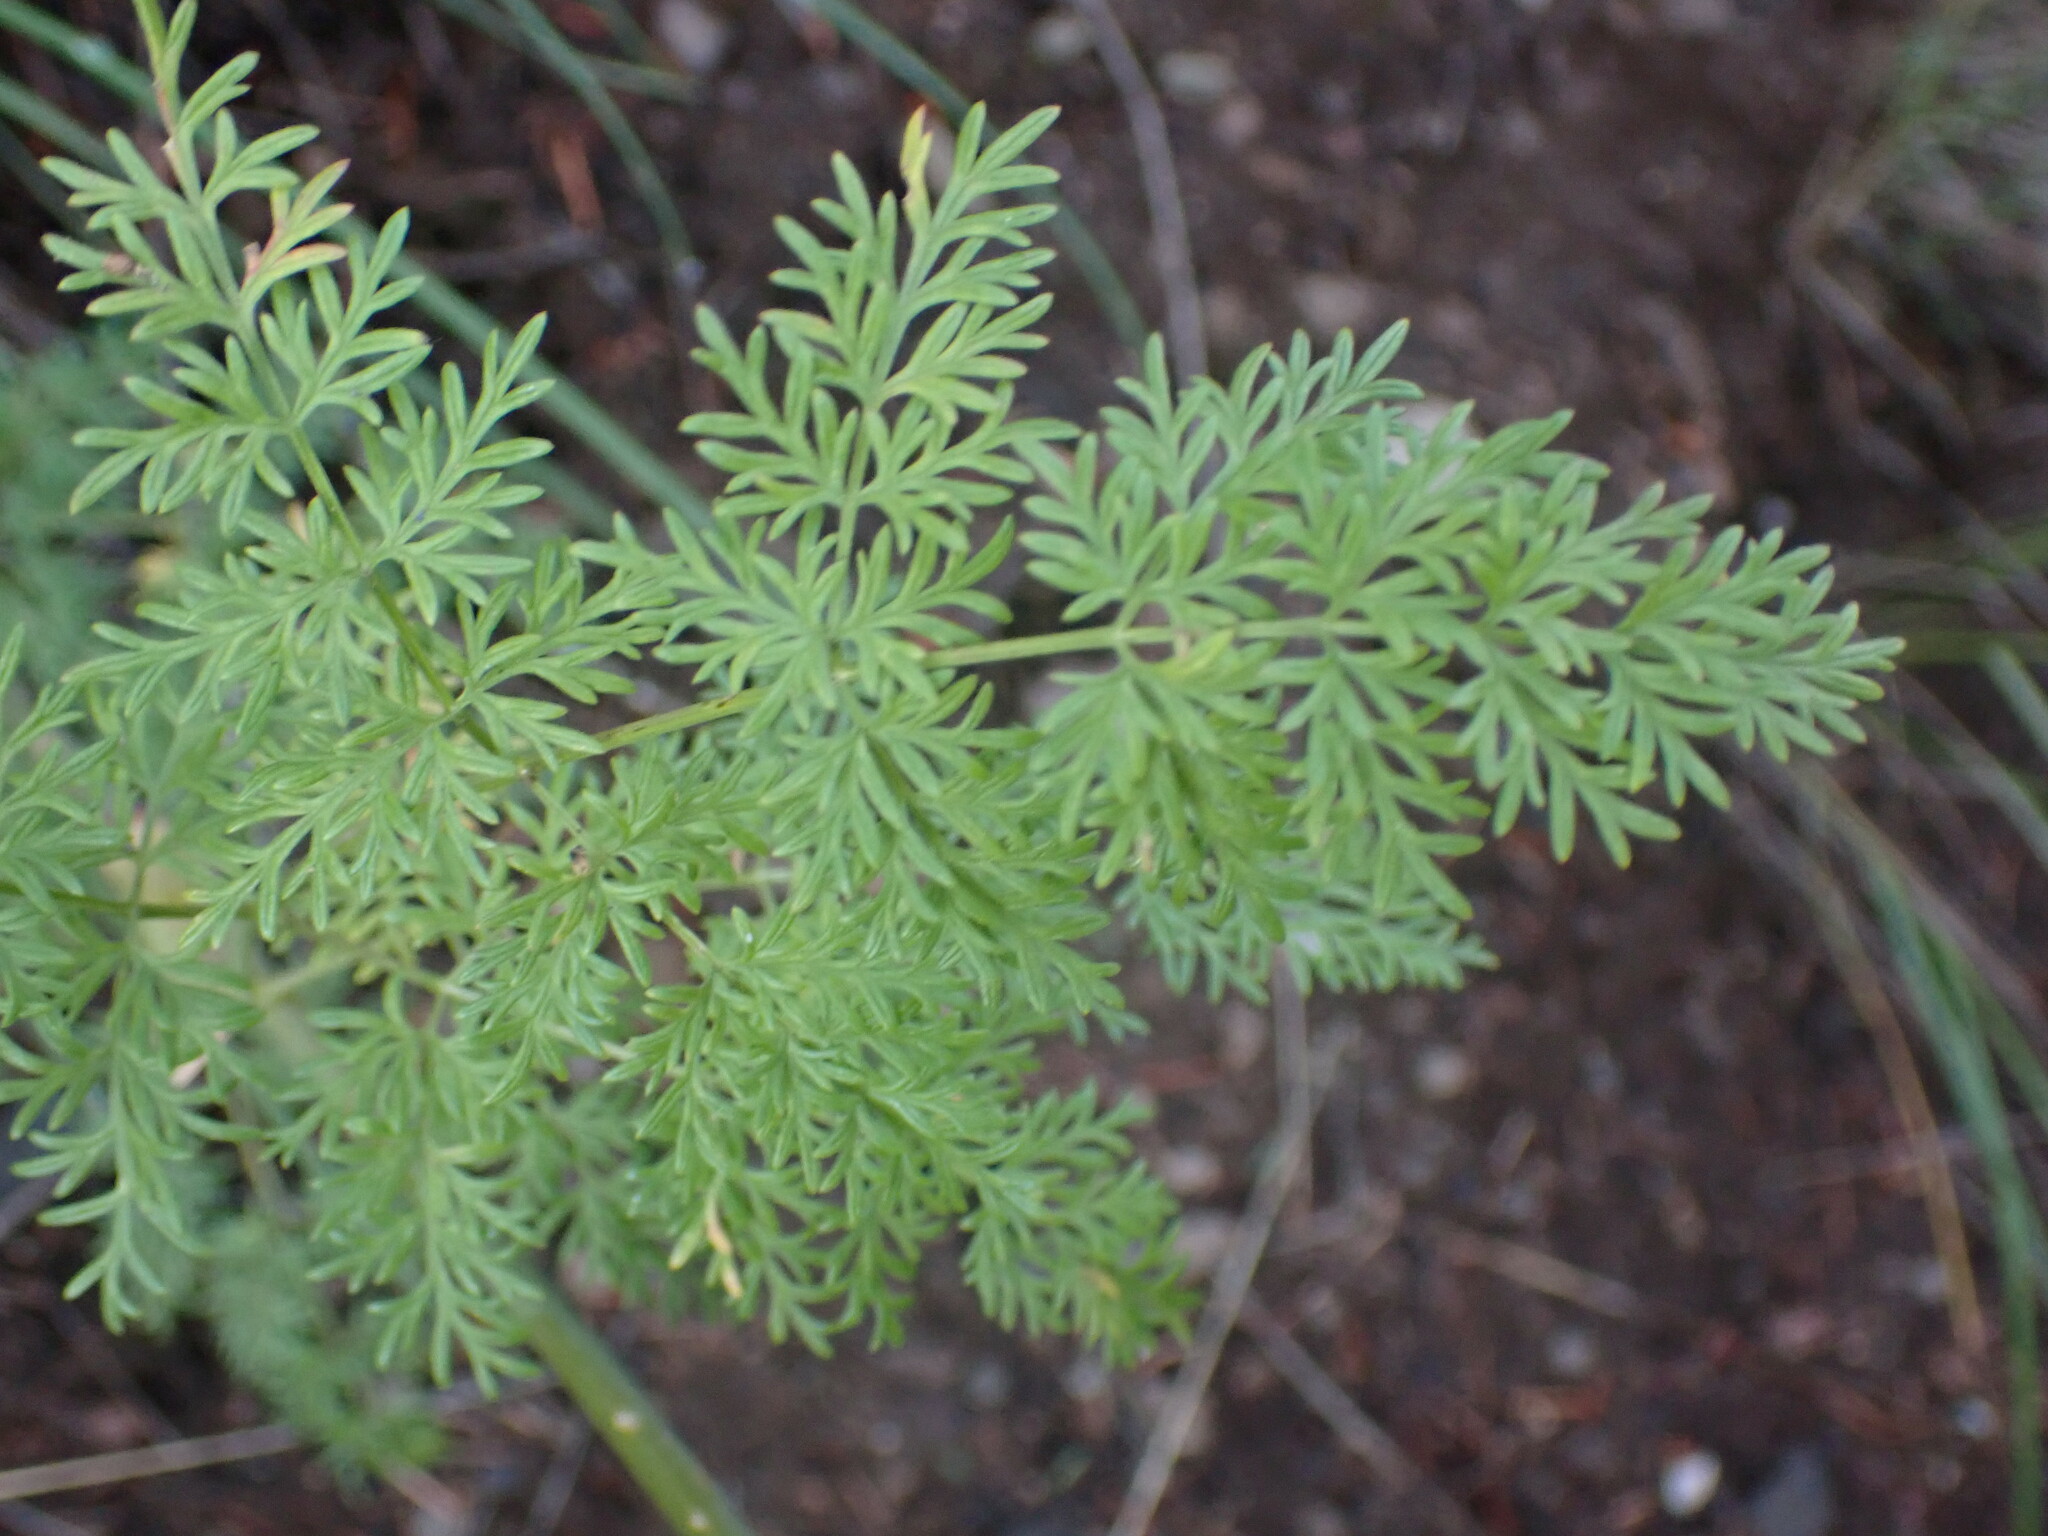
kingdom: Plantae
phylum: Tracheophyta
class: Magnoliopsida
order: Apiales
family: Apiaceae
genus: Lomatium
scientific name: Lomatium multifidum
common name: Carrot-leaved biscuitroot
